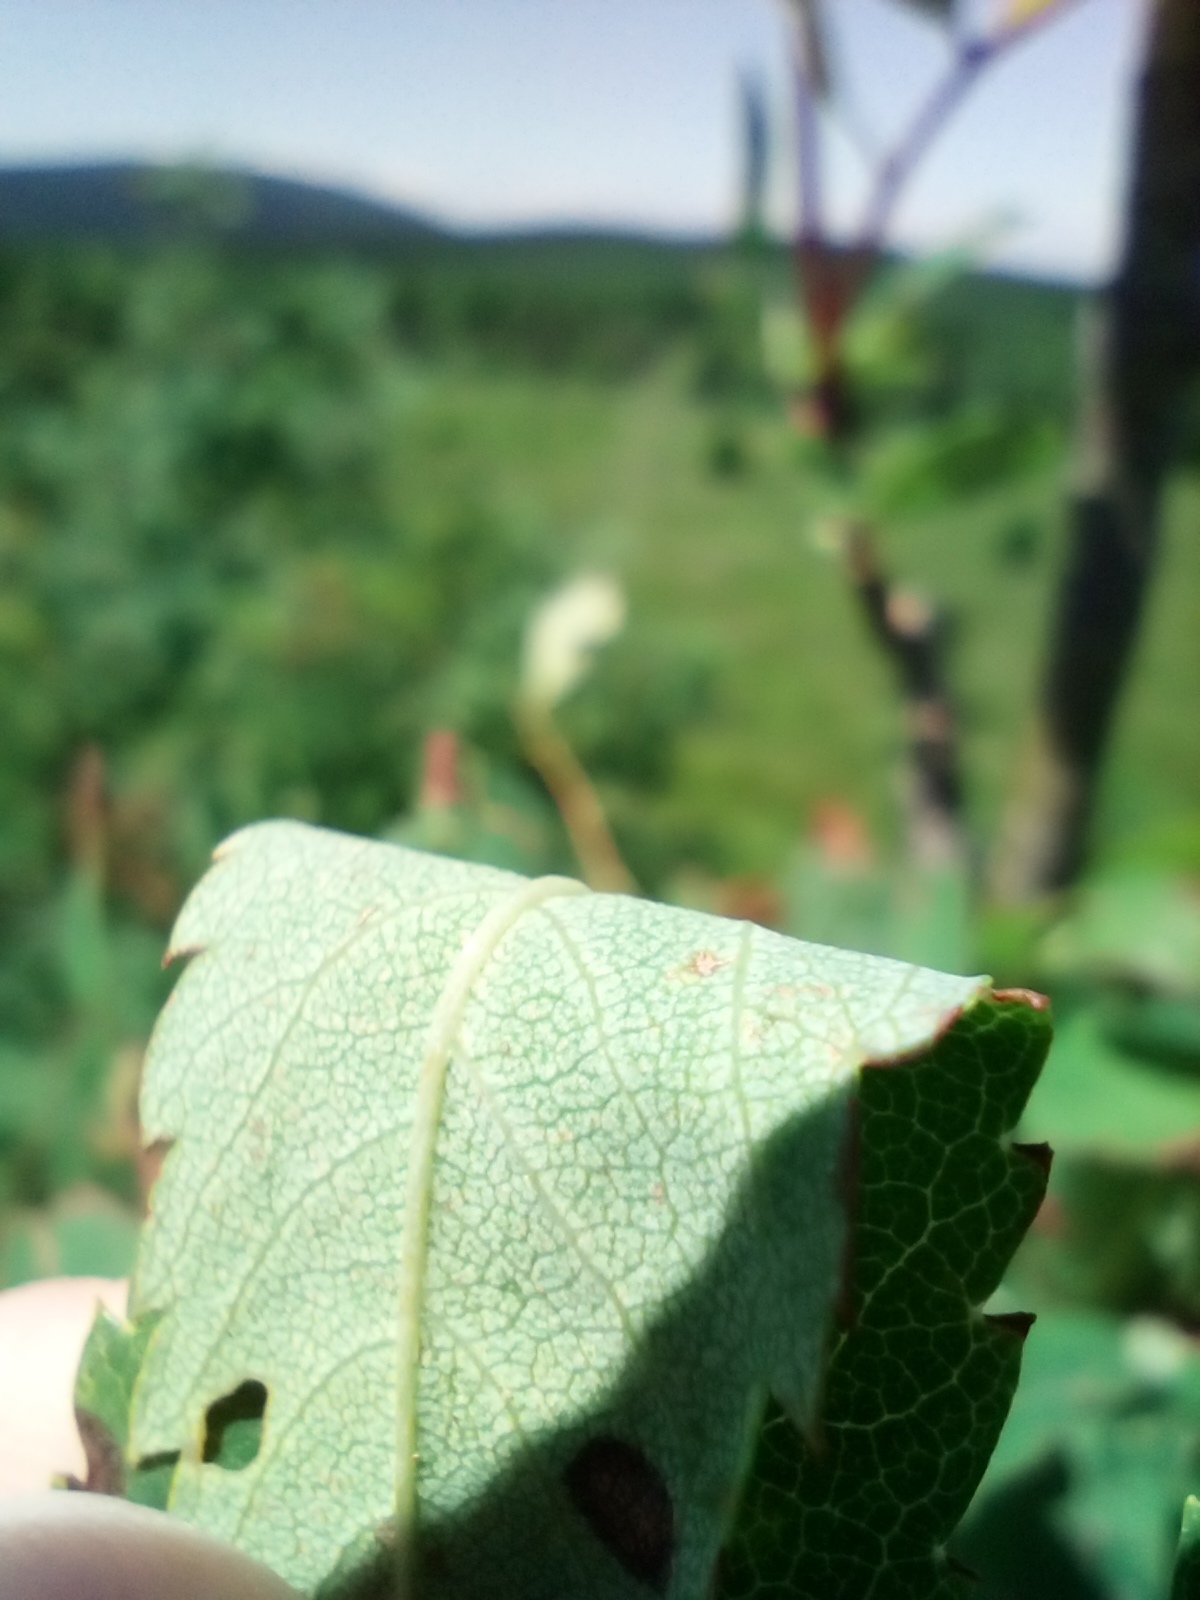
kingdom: Plantae
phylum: Tracheophyta
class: Magnoliopsida
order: Rosales
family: Rosaceae
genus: Sorbus
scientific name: Sorbus aucuparia
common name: Rowan
